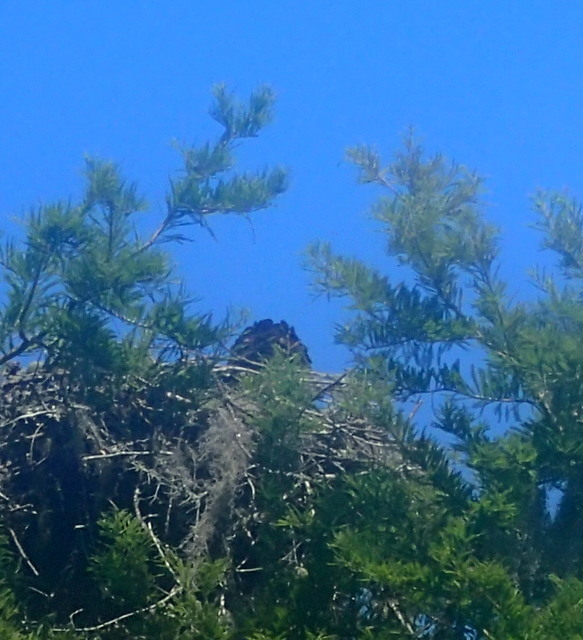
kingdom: Animalia
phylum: Chordata
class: Aves
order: Accipitriformes
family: Pandionidae
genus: Pandion
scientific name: Pandion haliaetus
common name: Osprey
